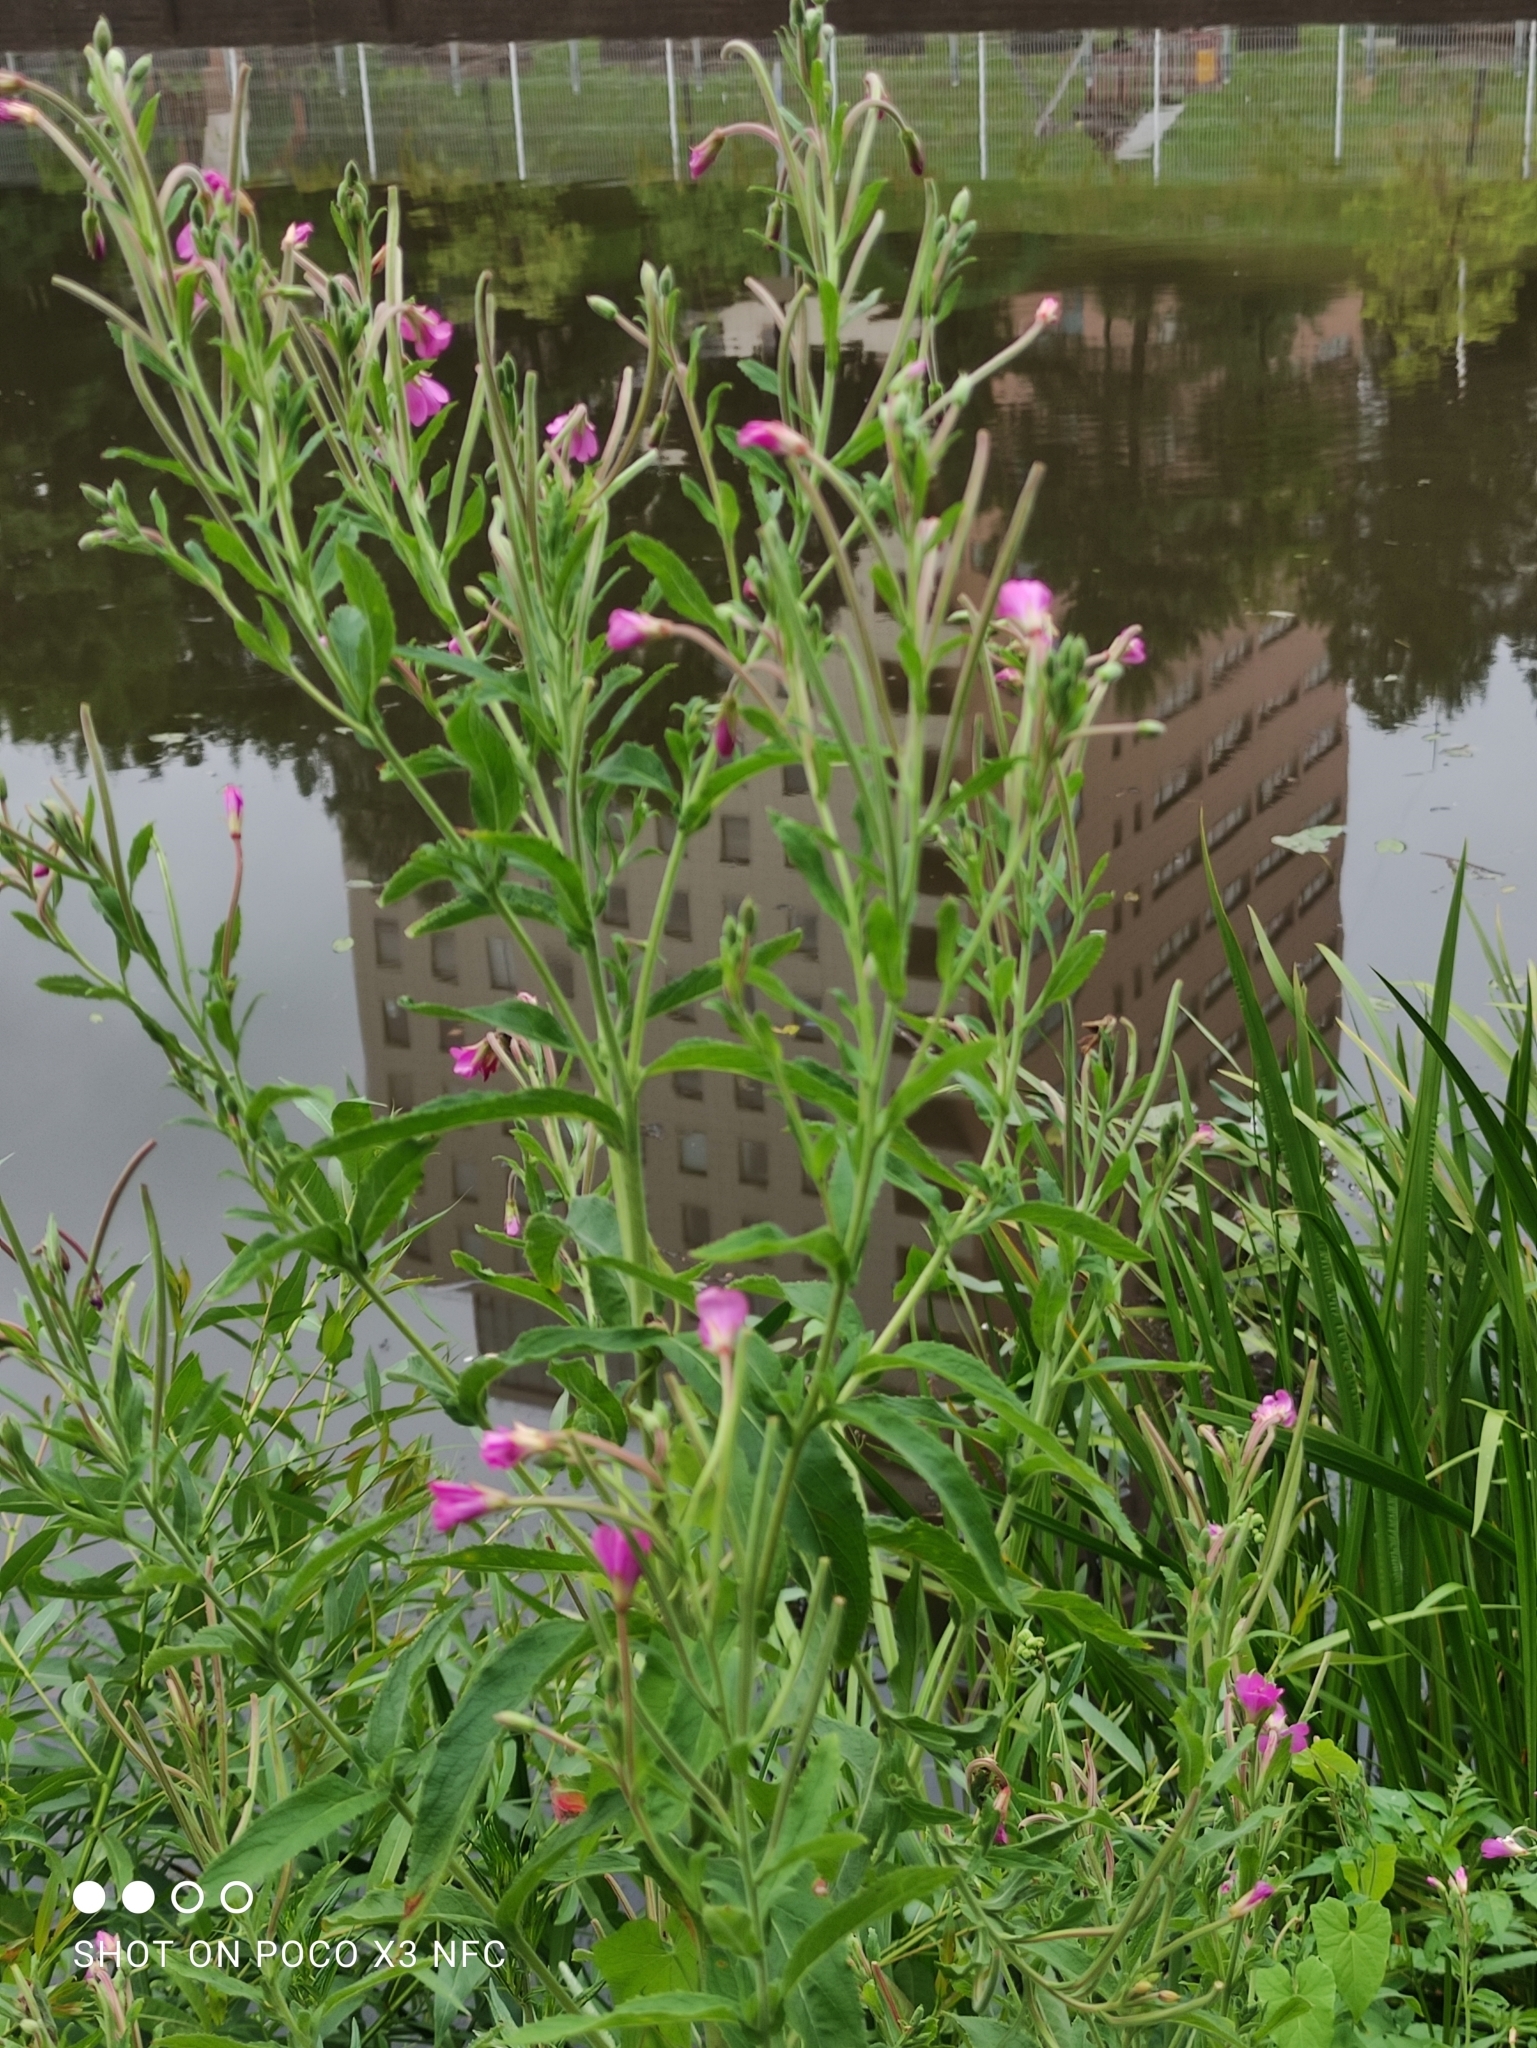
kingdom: Plantae
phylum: Tracheophyta
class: Magnoliopsida
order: Myrtales
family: Onagraceae
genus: Epilobium
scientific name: Epilobium hirsutum
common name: Great willowherb
